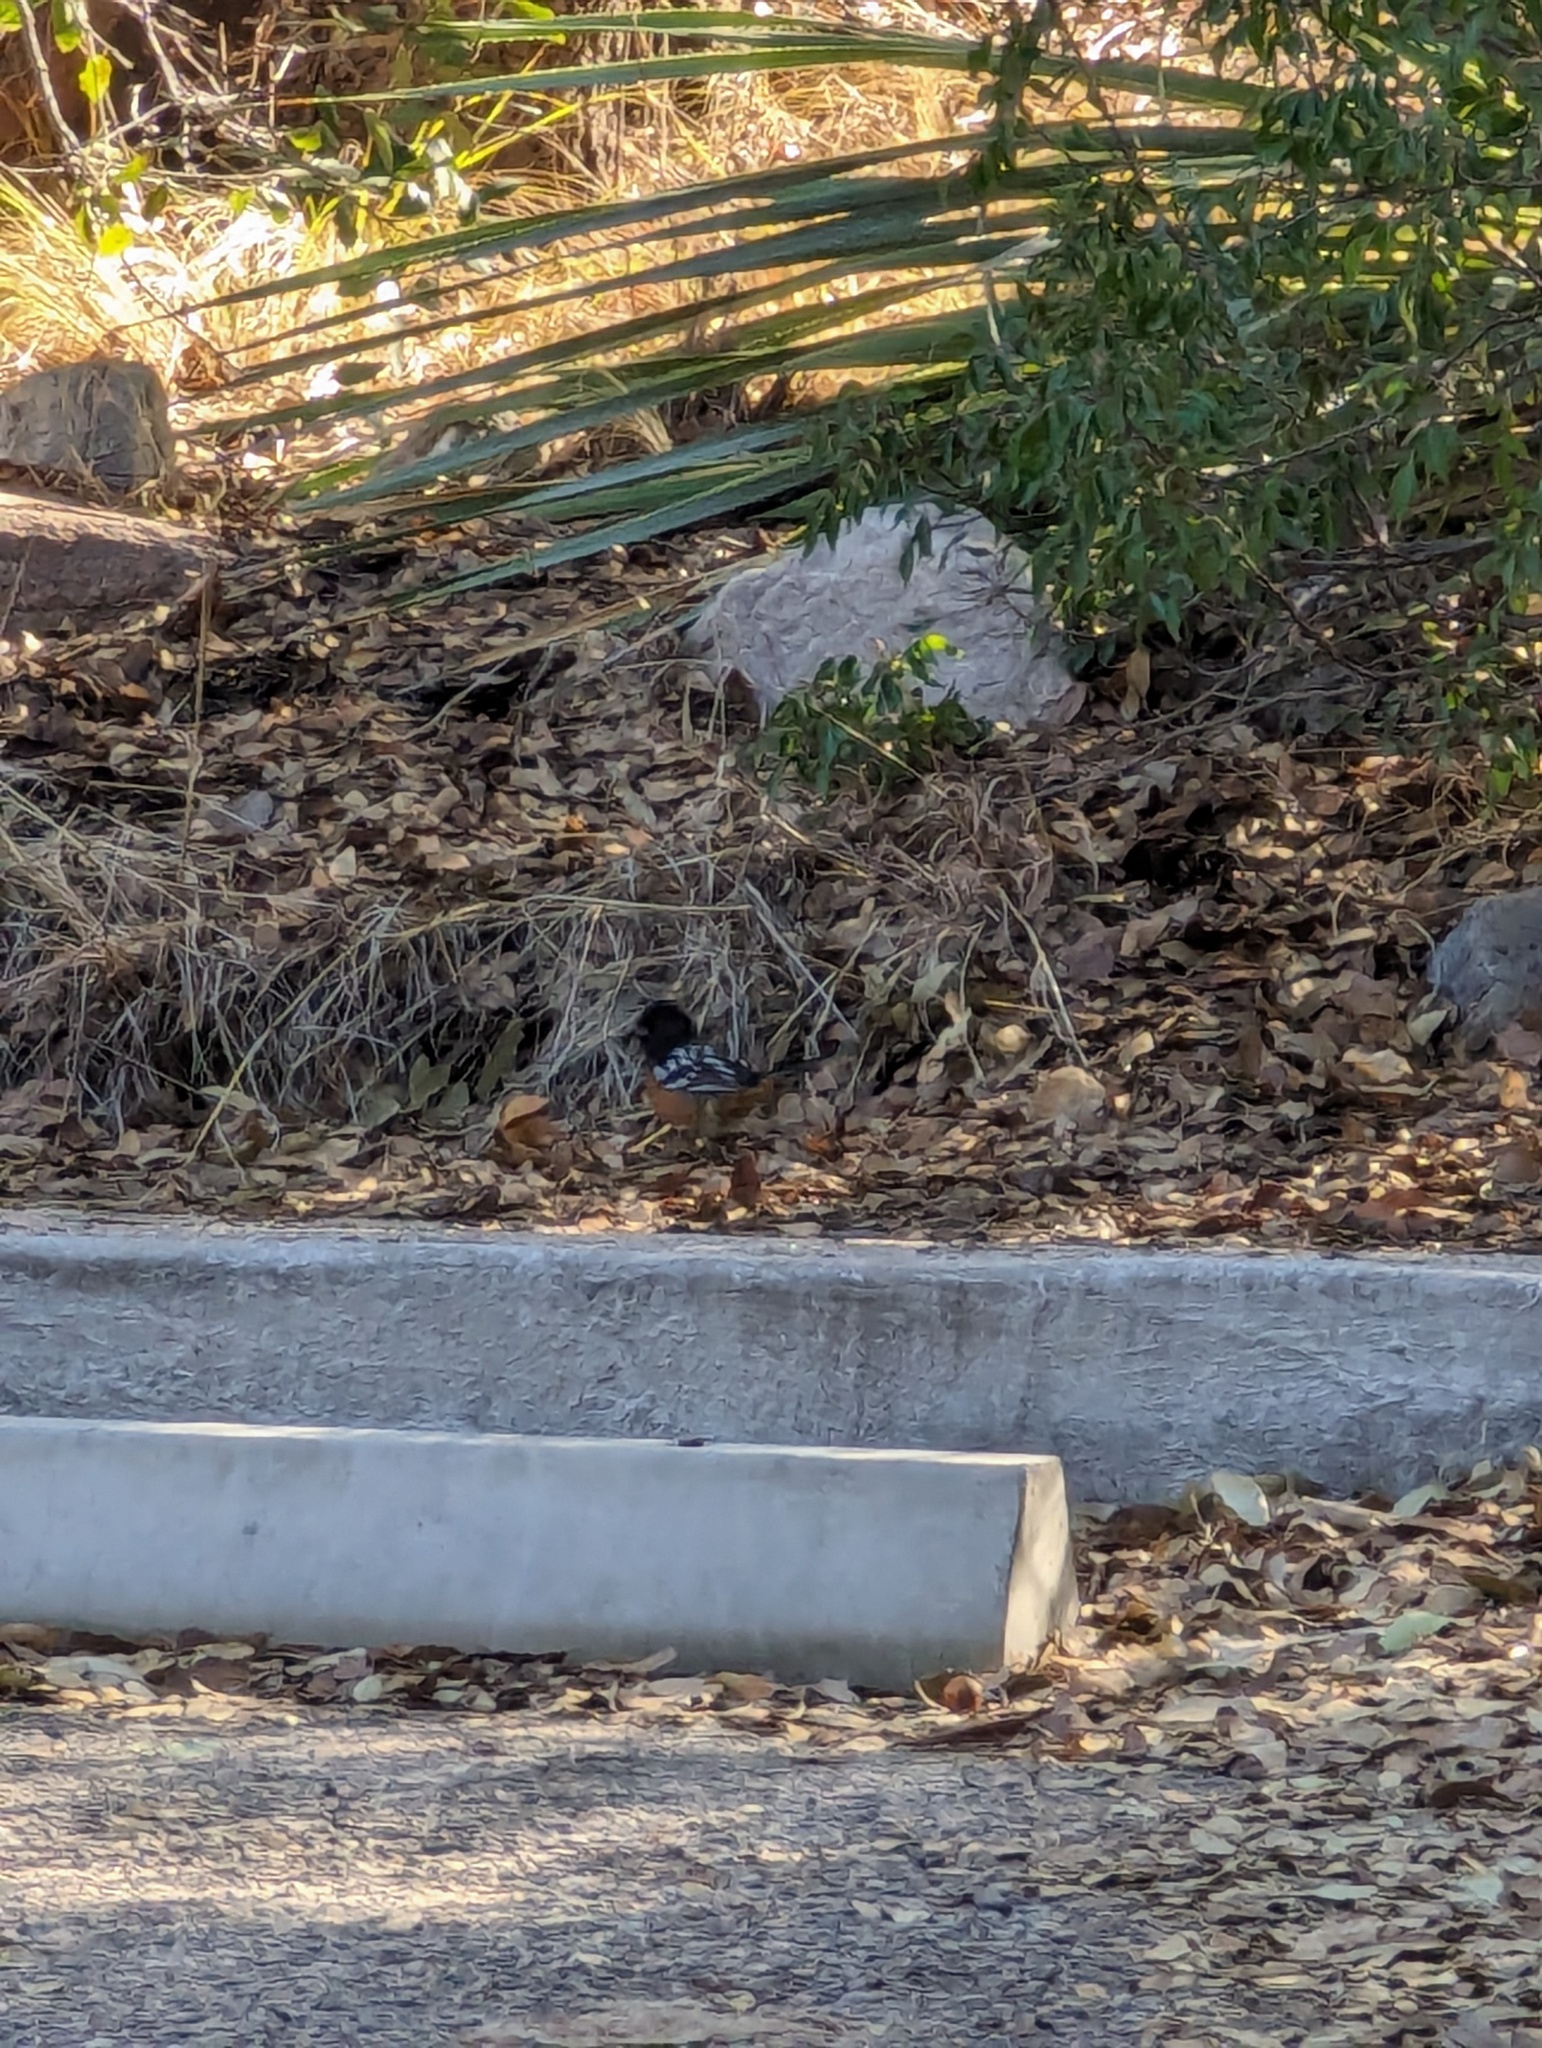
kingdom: Animalia
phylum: Chordata
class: Aves
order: Passeriformes
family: Passerellidae
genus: Pipilo
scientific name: Pipilo maculatus
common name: Spotted towhee
